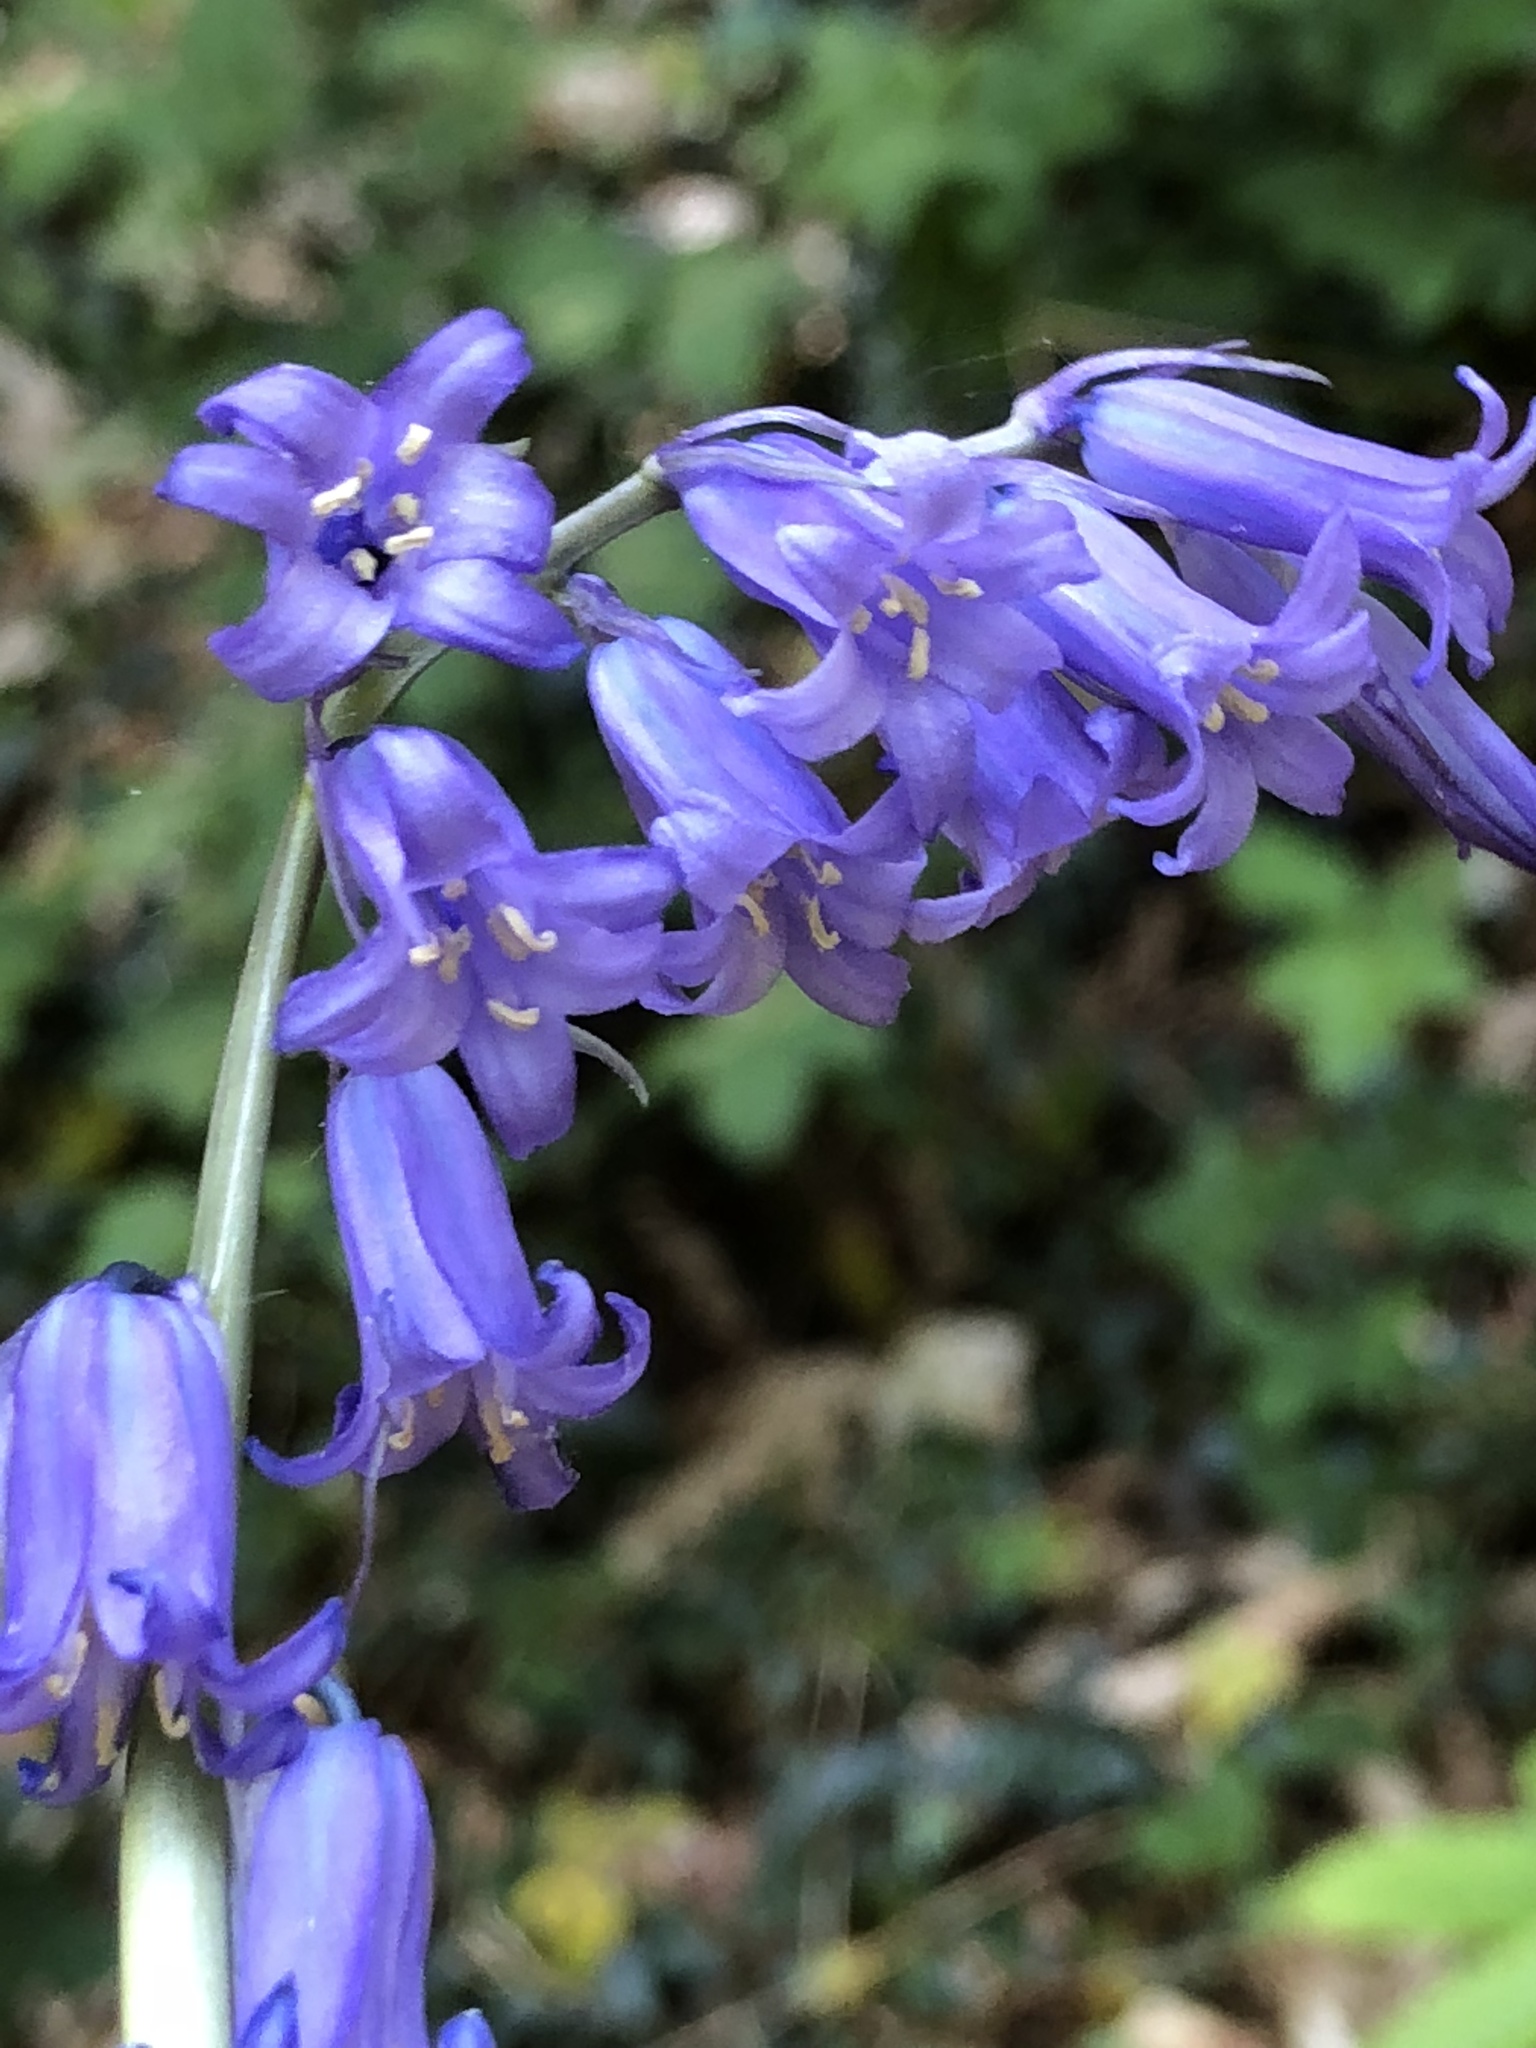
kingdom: Plantae
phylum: Tracheophyta
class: Liliopsida
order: Asparagales
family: Asparagaceae
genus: Hyacinthoides
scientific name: Hyacinthoides non-scripta
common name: Bluebell
